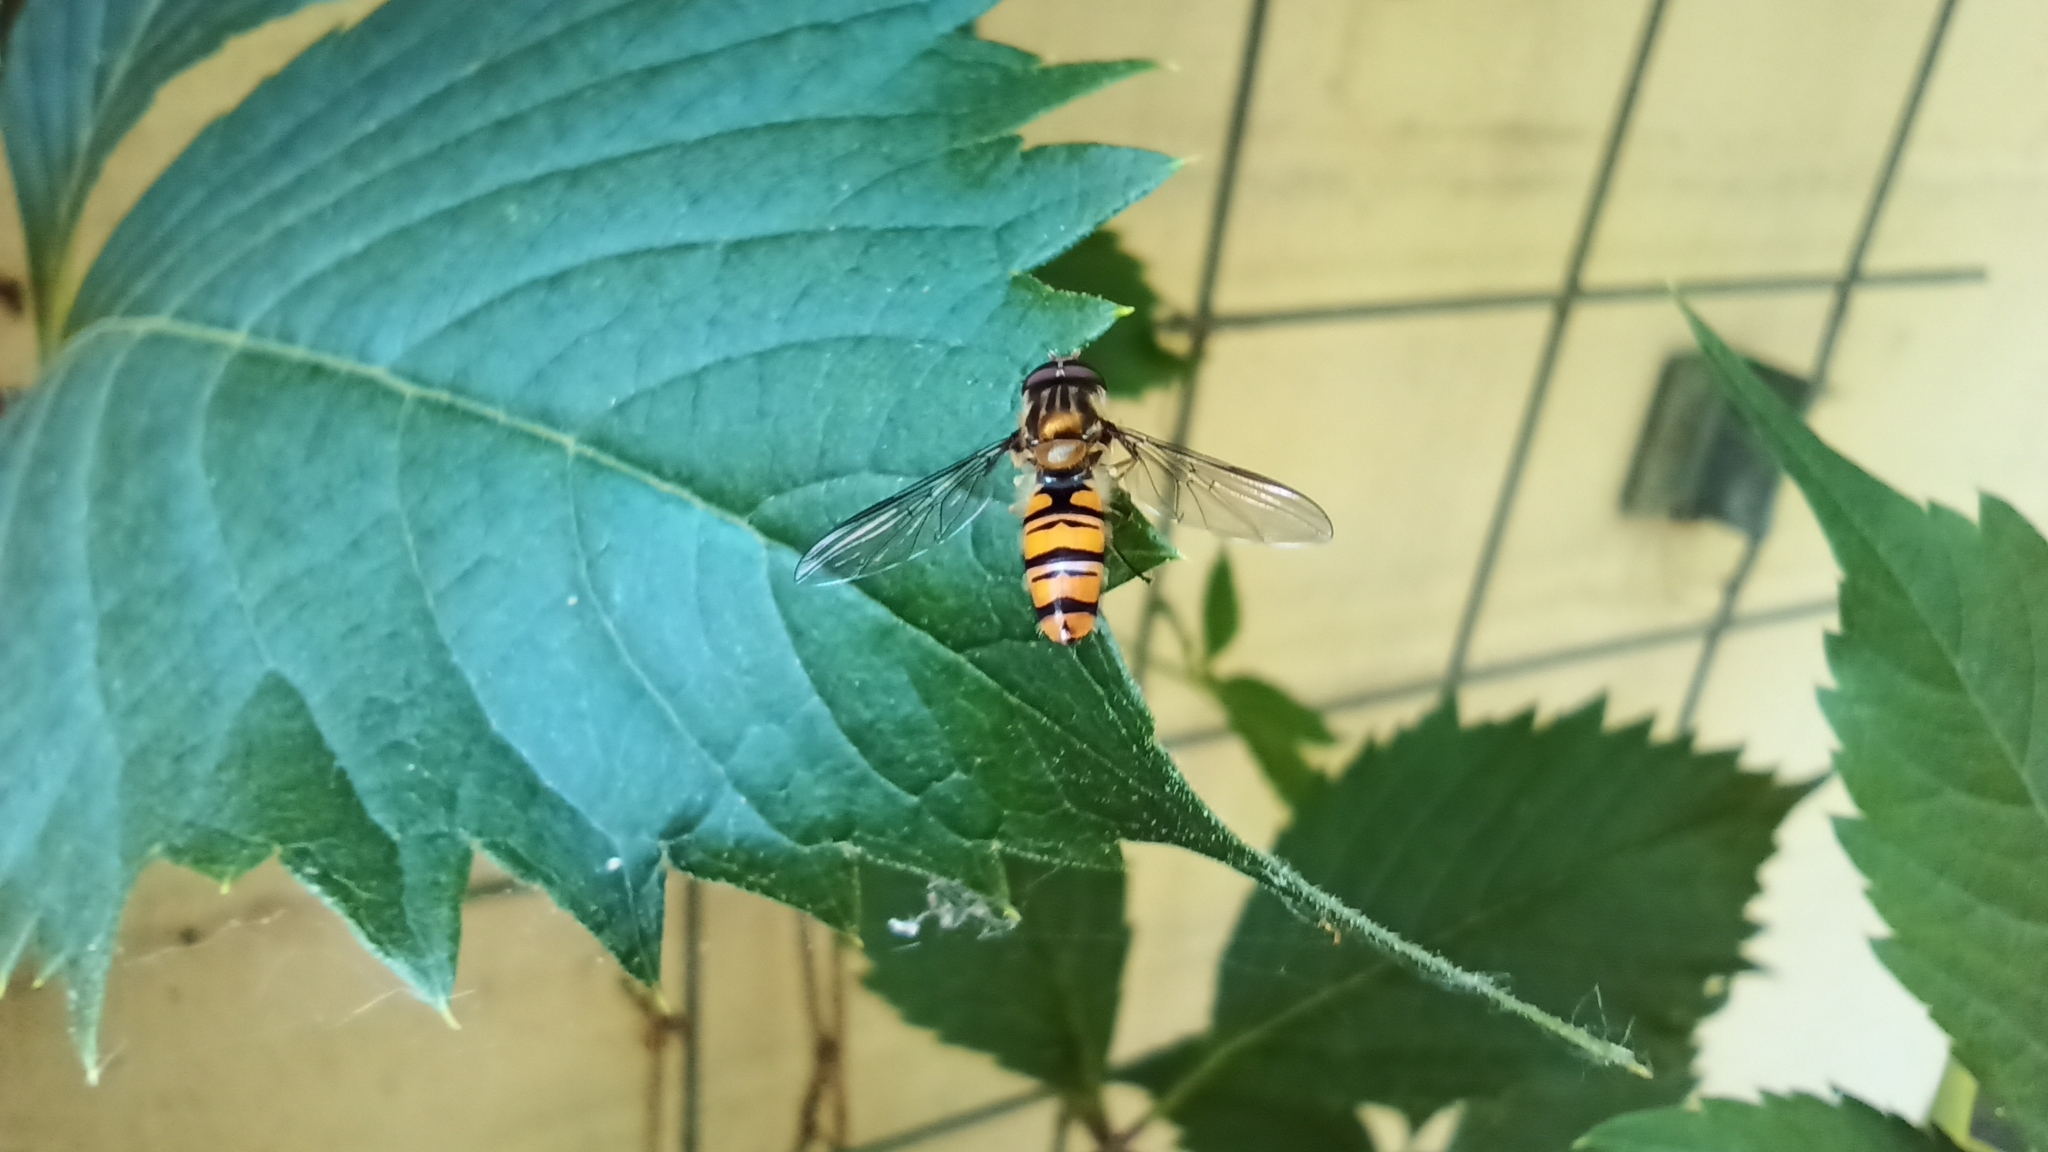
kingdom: Animalia
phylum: Arthropoda
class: Insecta
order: Diptera
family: Syrphidae
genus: Episyrphus
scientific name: Episyrphus balteatus
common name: Marmalade hoverfly
